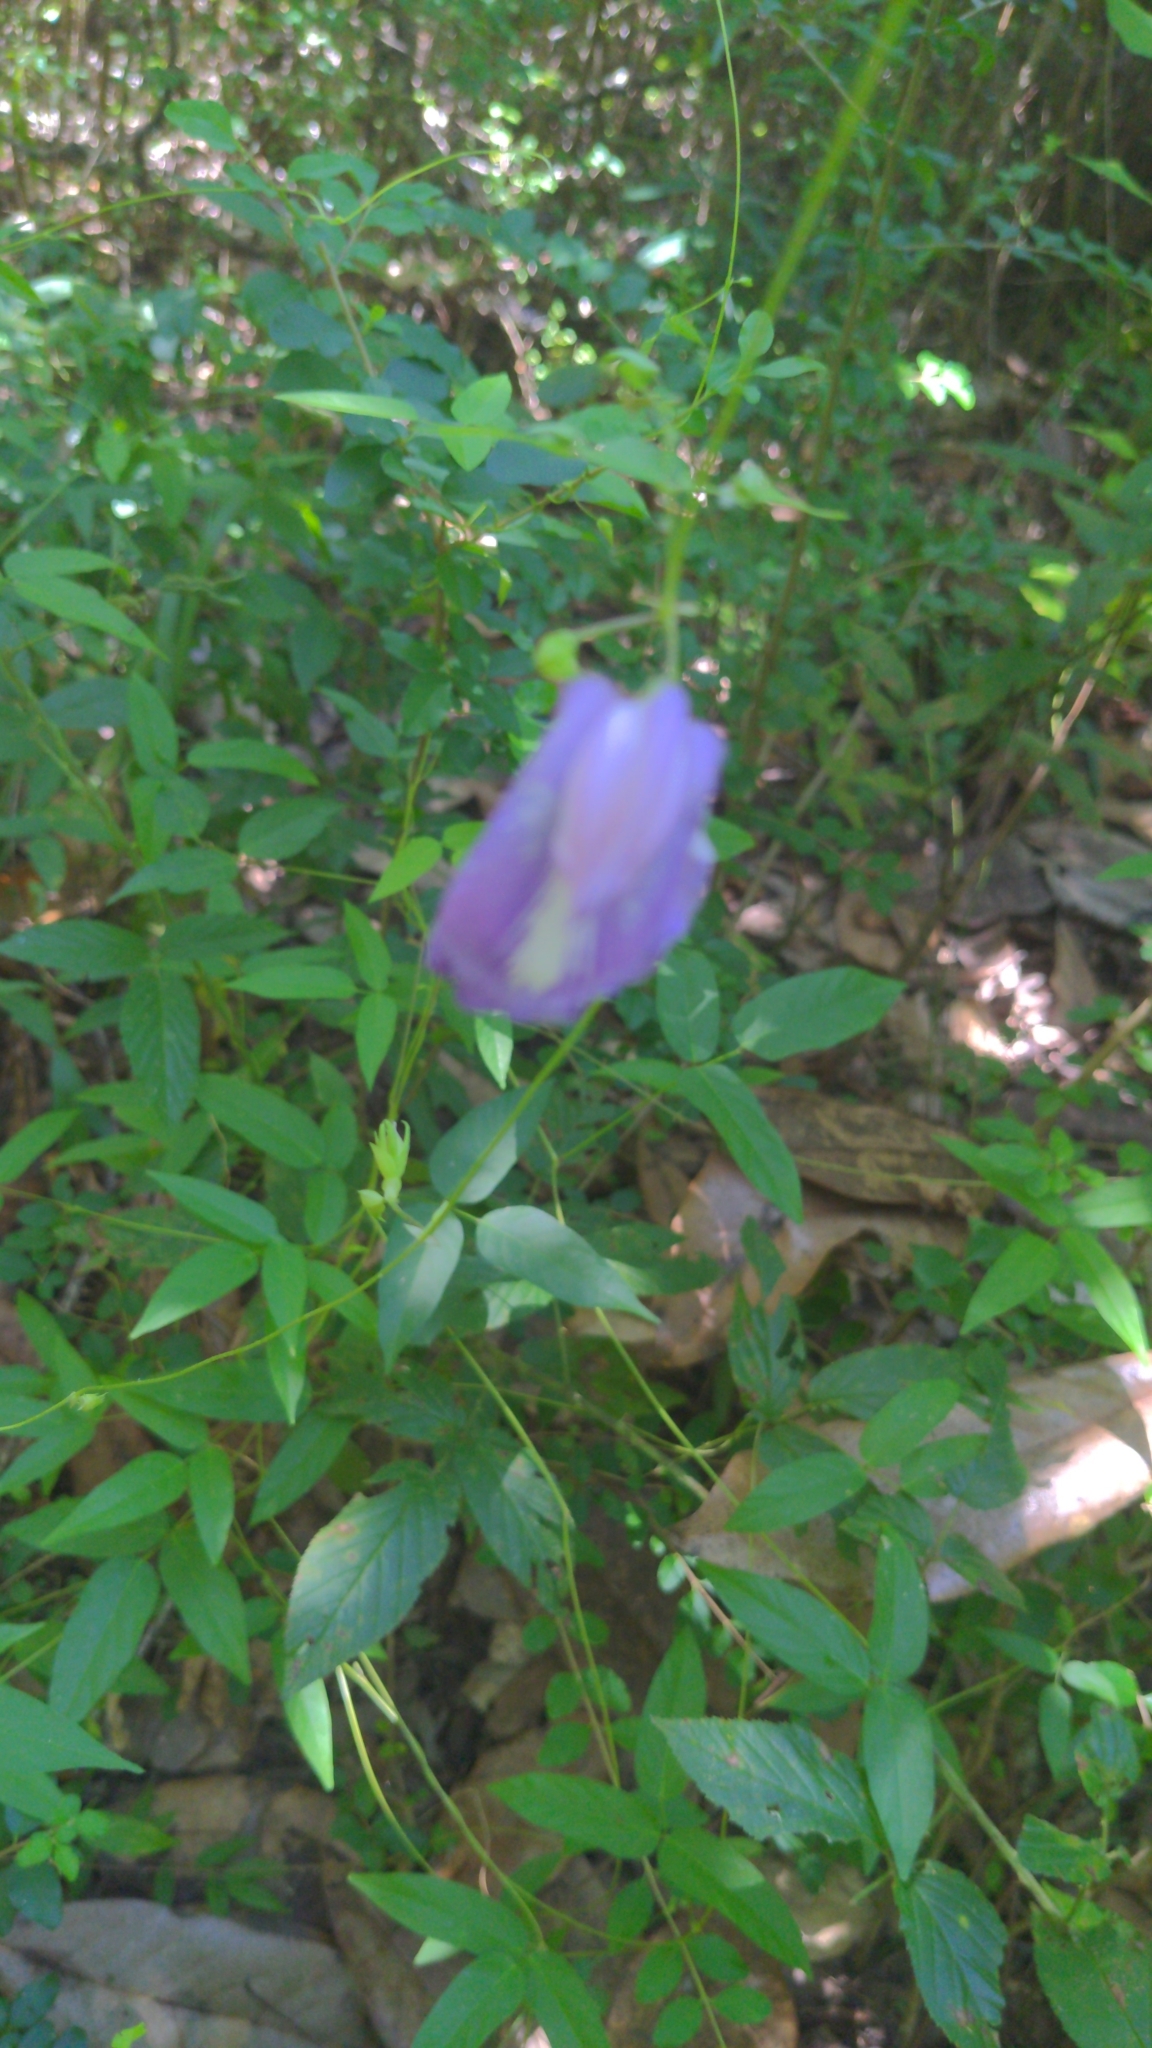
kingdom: Plantae
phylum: Tracheophyta
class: Magnoliopsida
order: Fabales
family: Fabaceae
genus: Centrosema
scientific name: Centrosema virginianum
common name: Butterfly-pea
